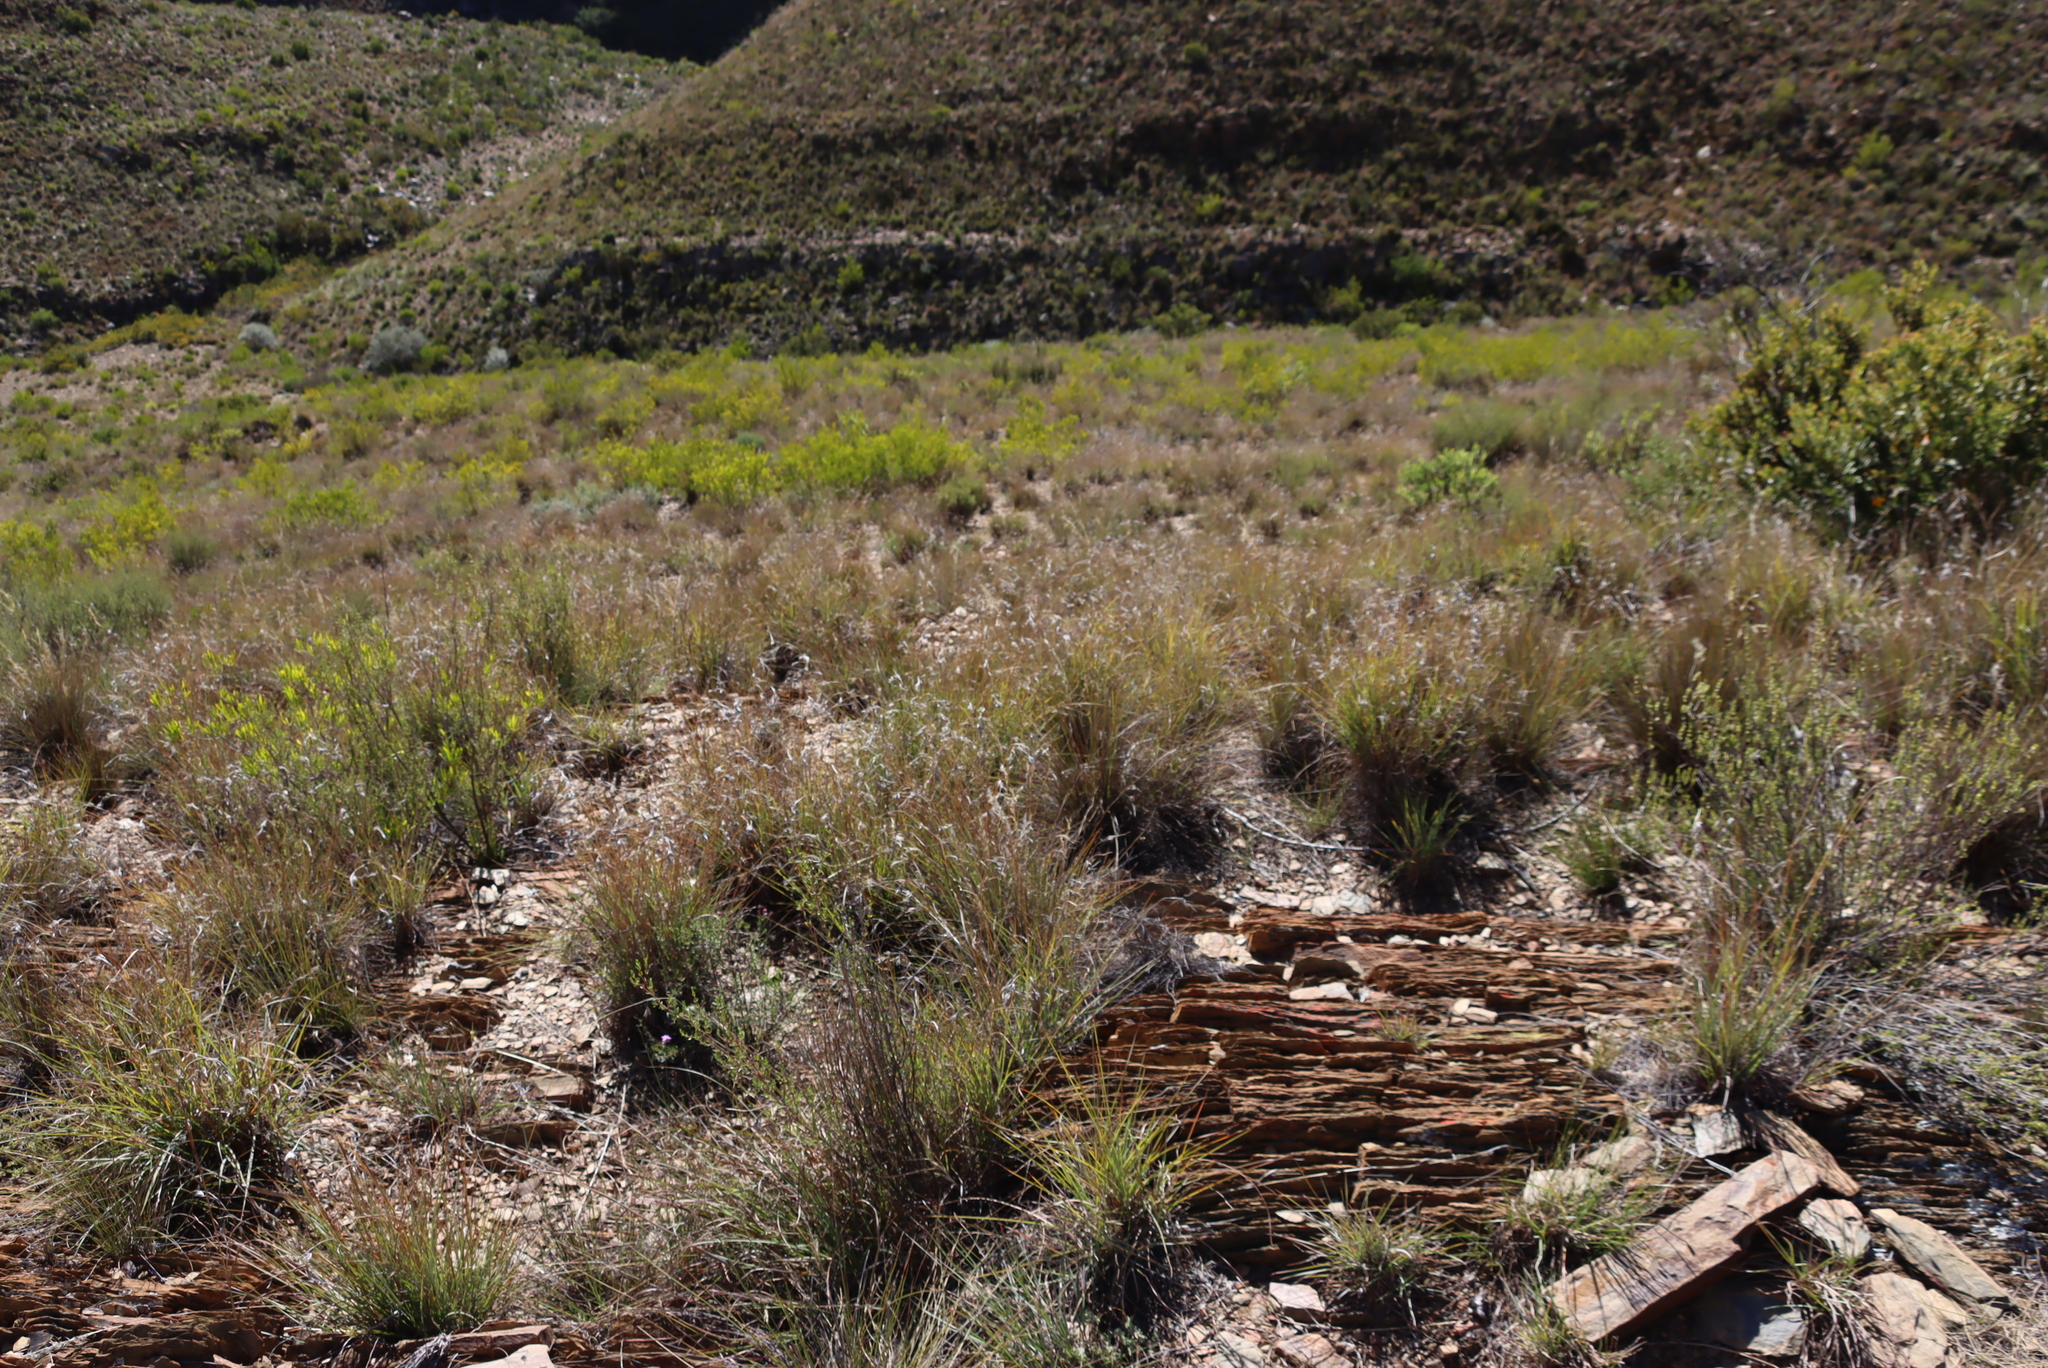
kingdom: Plantae
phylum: Tracheophyta
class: Liliopsida
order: Poales
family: Poaceae
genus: Themeda
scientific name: Themeda triandra
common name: Kangaroo grass
